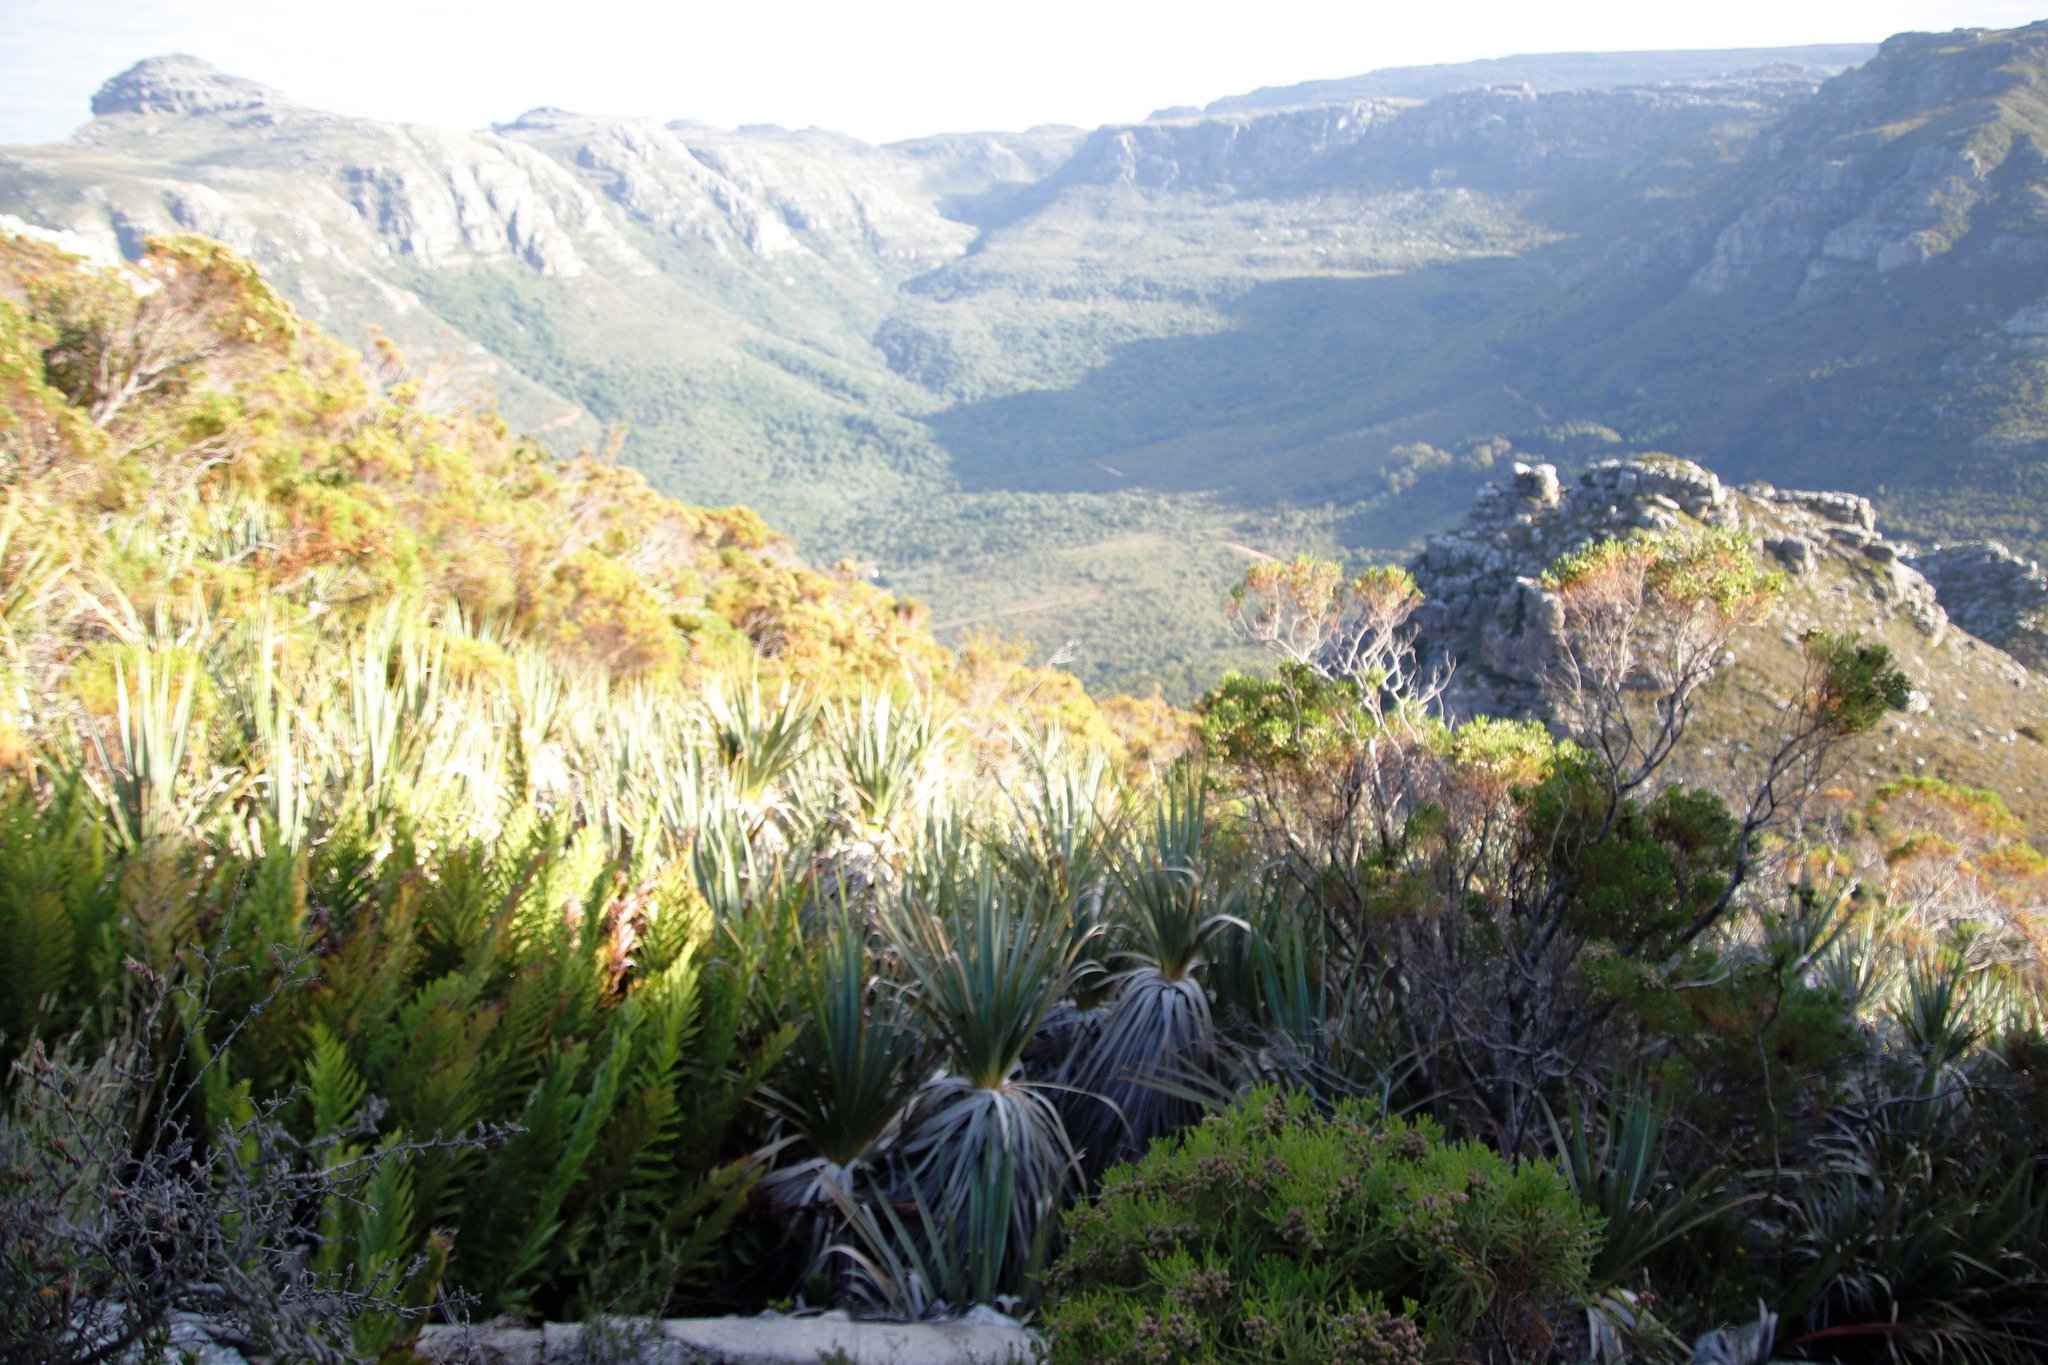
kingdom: Plantae
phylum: Tracheophyta
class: Polypodiopsida
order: Osmundales
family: Osmundaceae
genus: Todea
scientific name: Todea barbara
